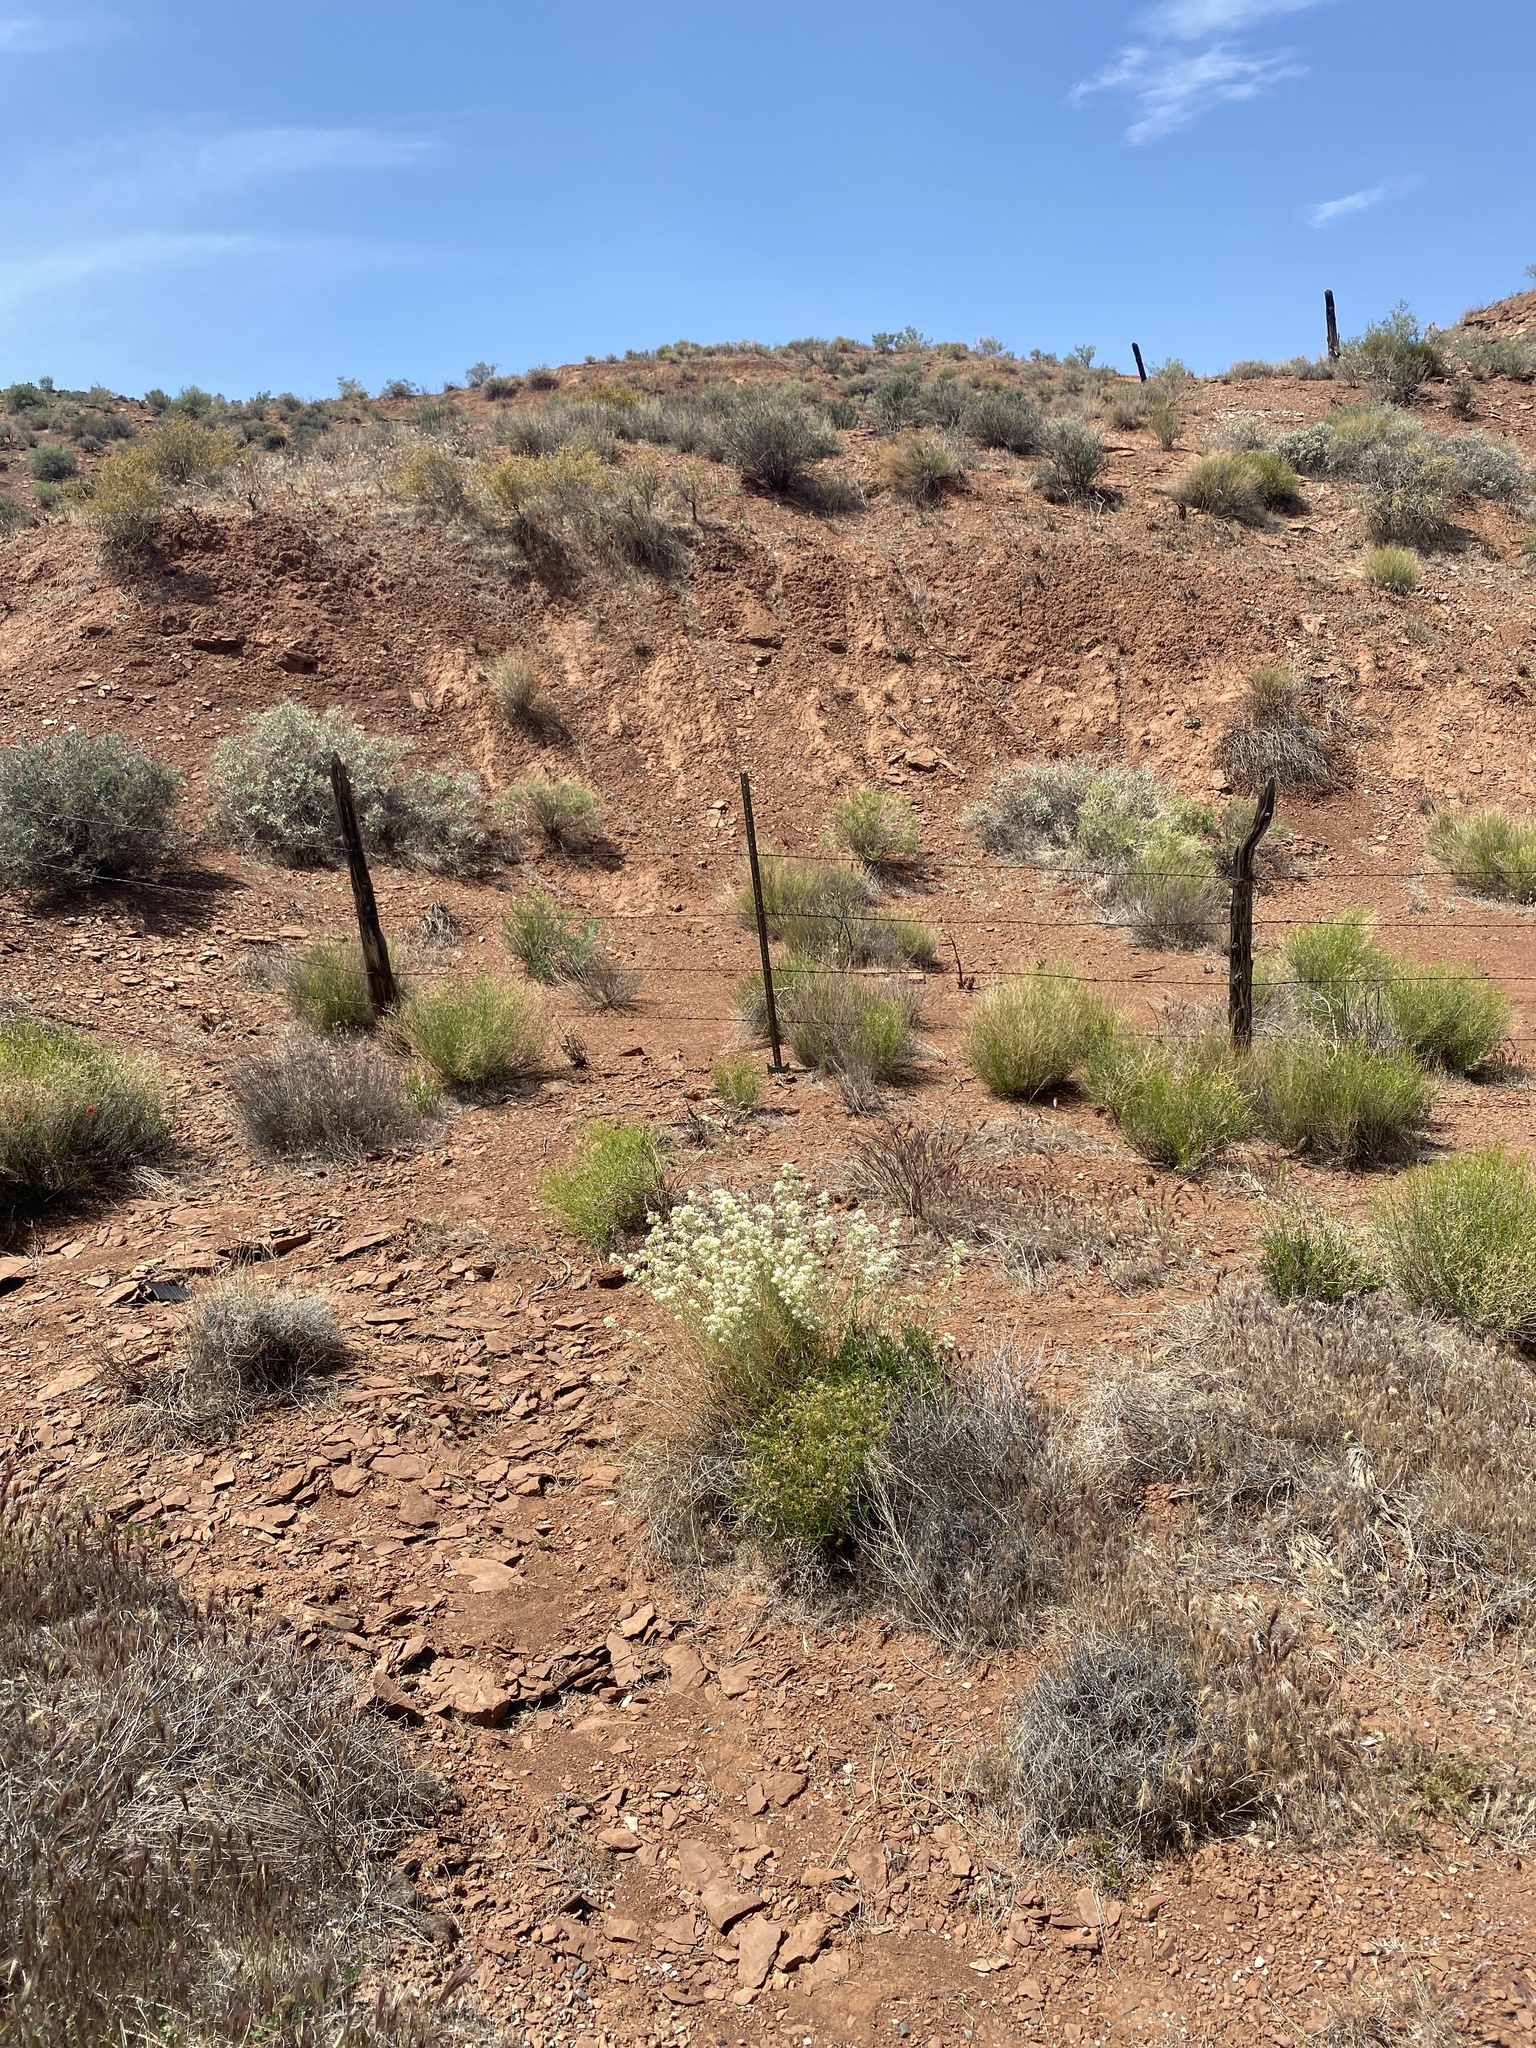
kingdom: Plantae
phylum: Tracheophyta
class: Magnoliopsida
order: Brassicales
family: Brassicaceae
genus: Lepidium
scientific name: Lepidium fremontii
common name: Fremont's pepperwort
